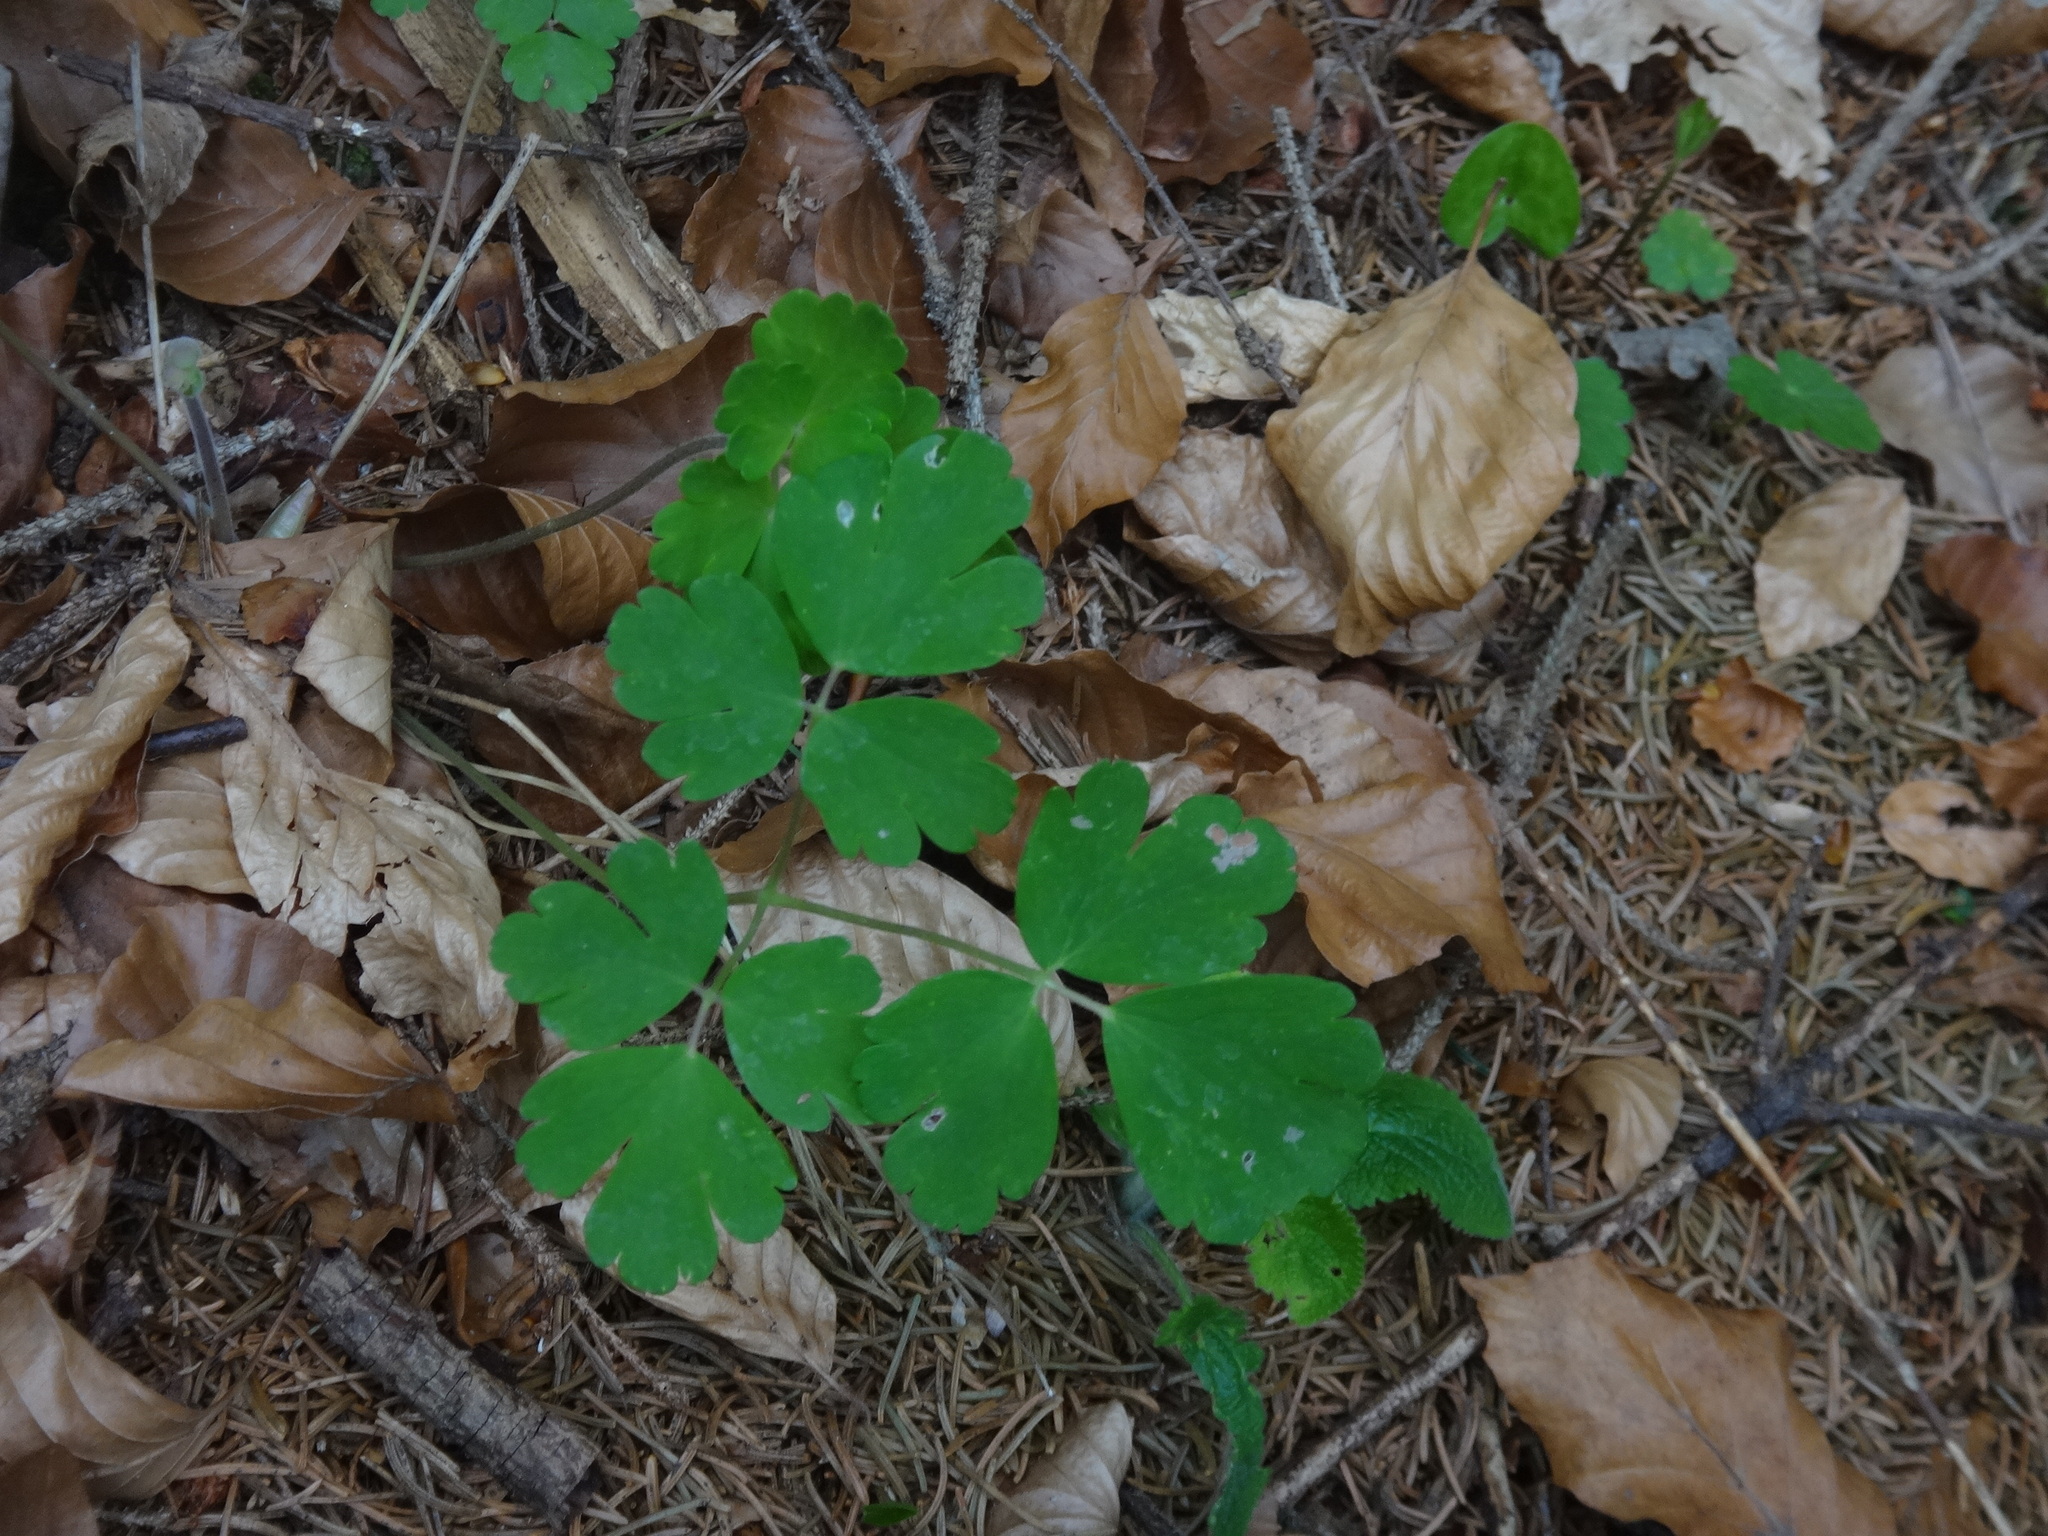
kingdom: Plantae
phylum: Tracheophyta
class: Magnoliopsida
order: Ranunculales
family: Ranunculaceae
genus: Aquilegia
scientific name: Aquilegia vulgaris
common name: Columbine
